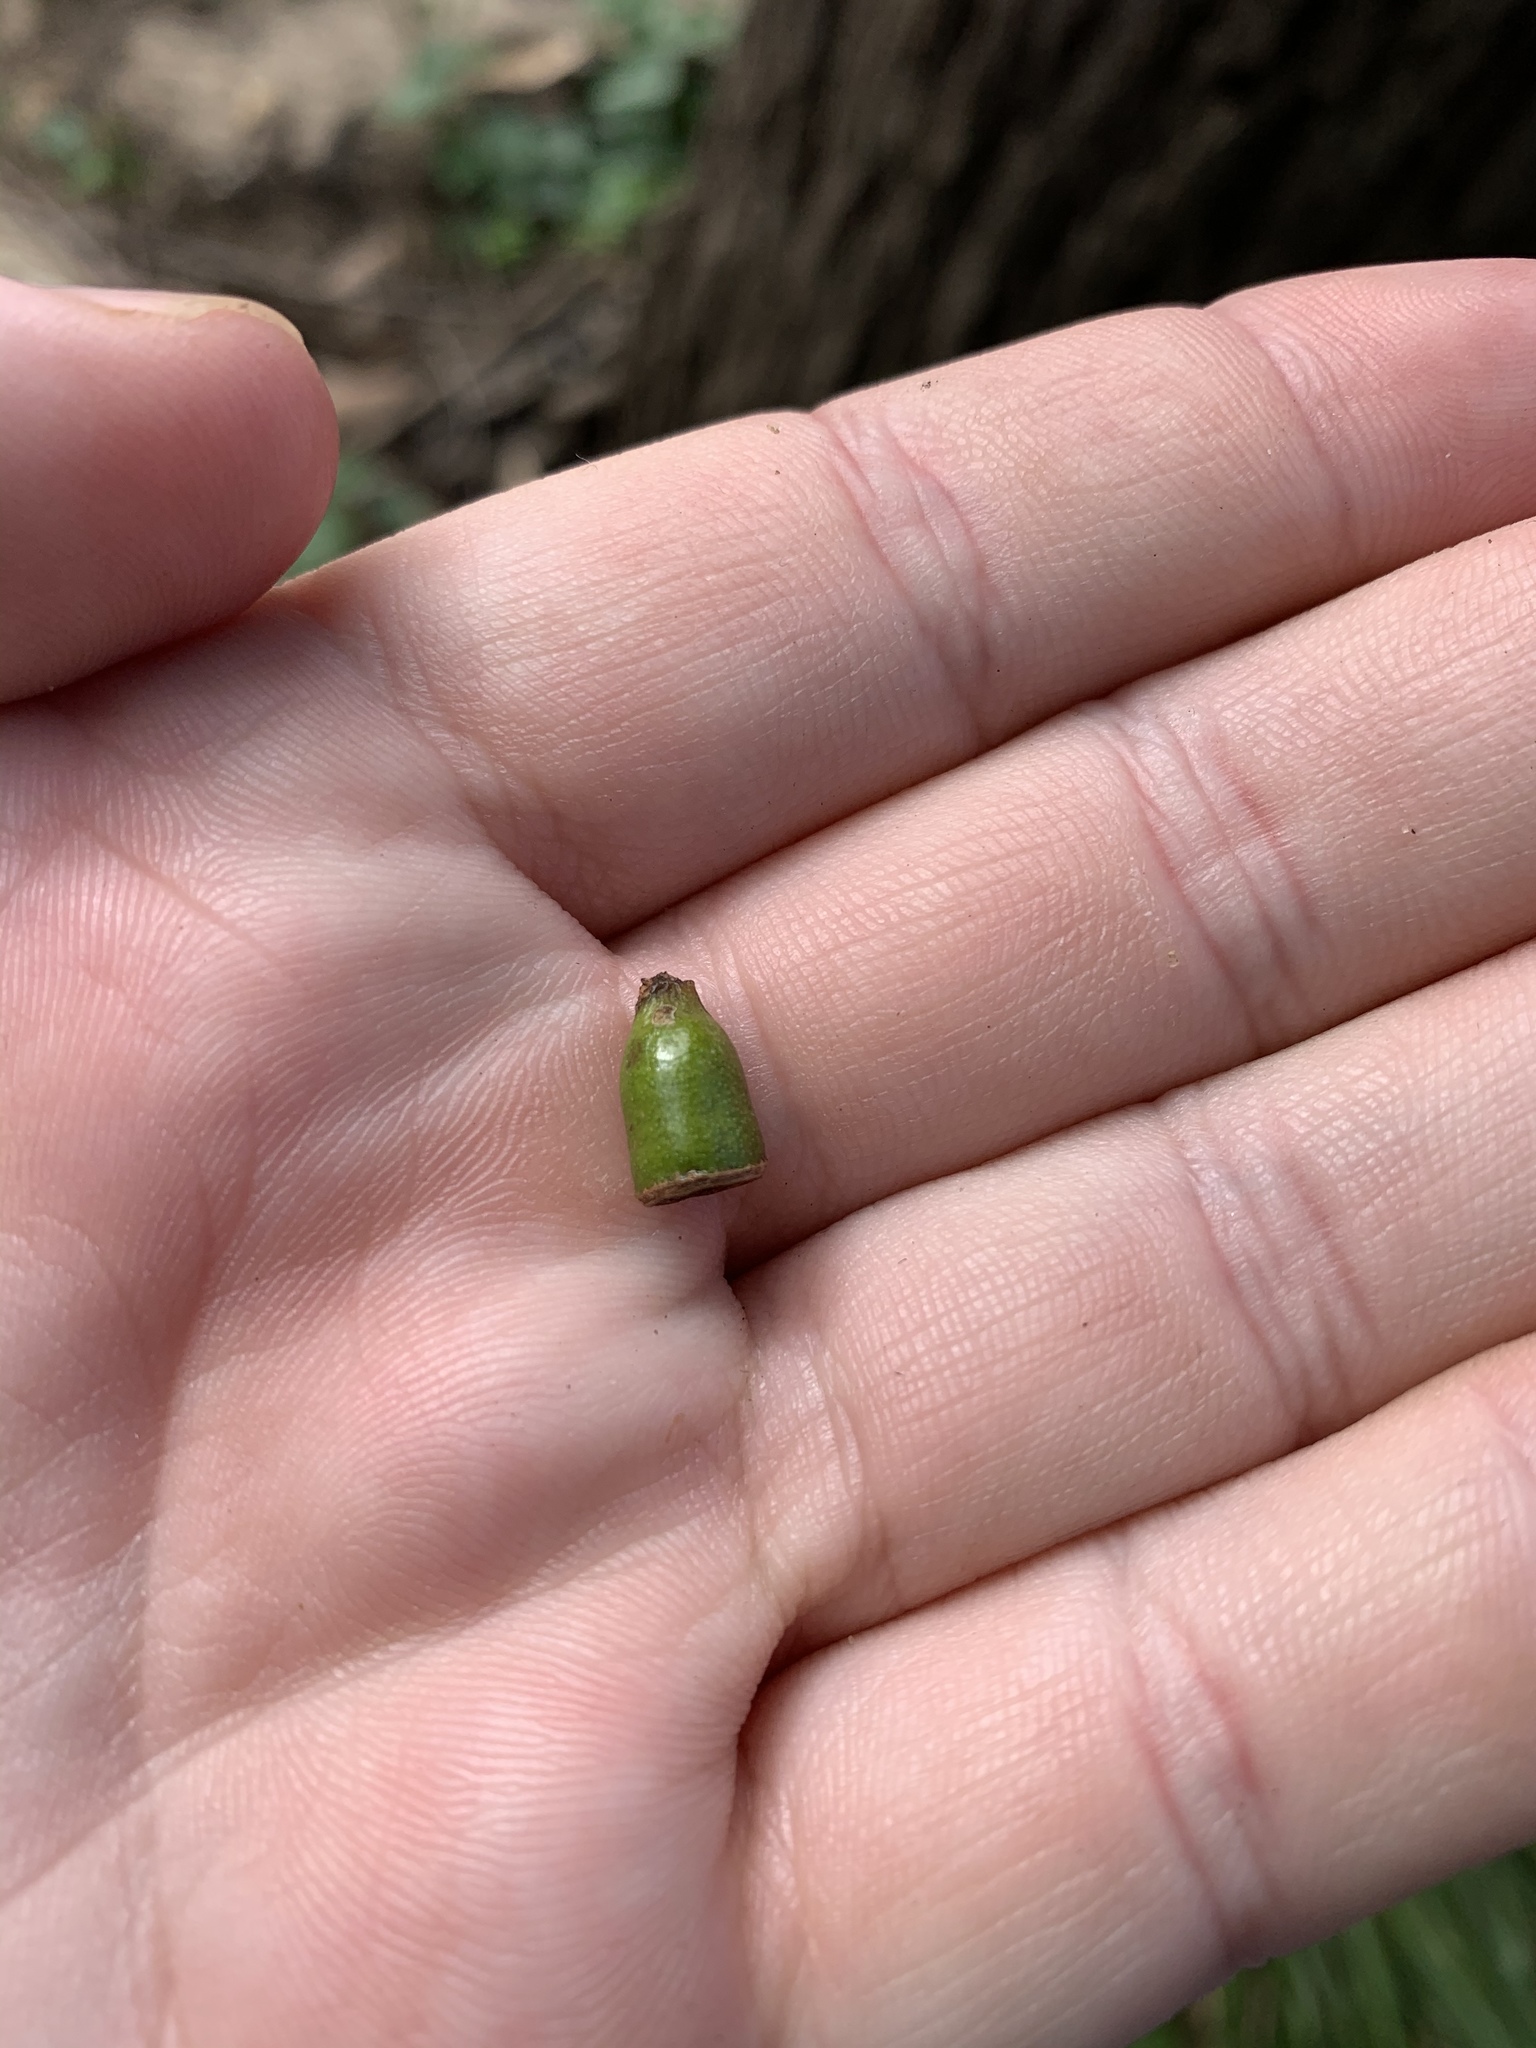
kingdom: Plantae
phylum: Tracheophyta
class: Magnoliopsida
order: Myrtales
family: Myrtaceae
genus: Eucalyptus
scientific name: Eucalyptus botryoides
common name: Bangalay
